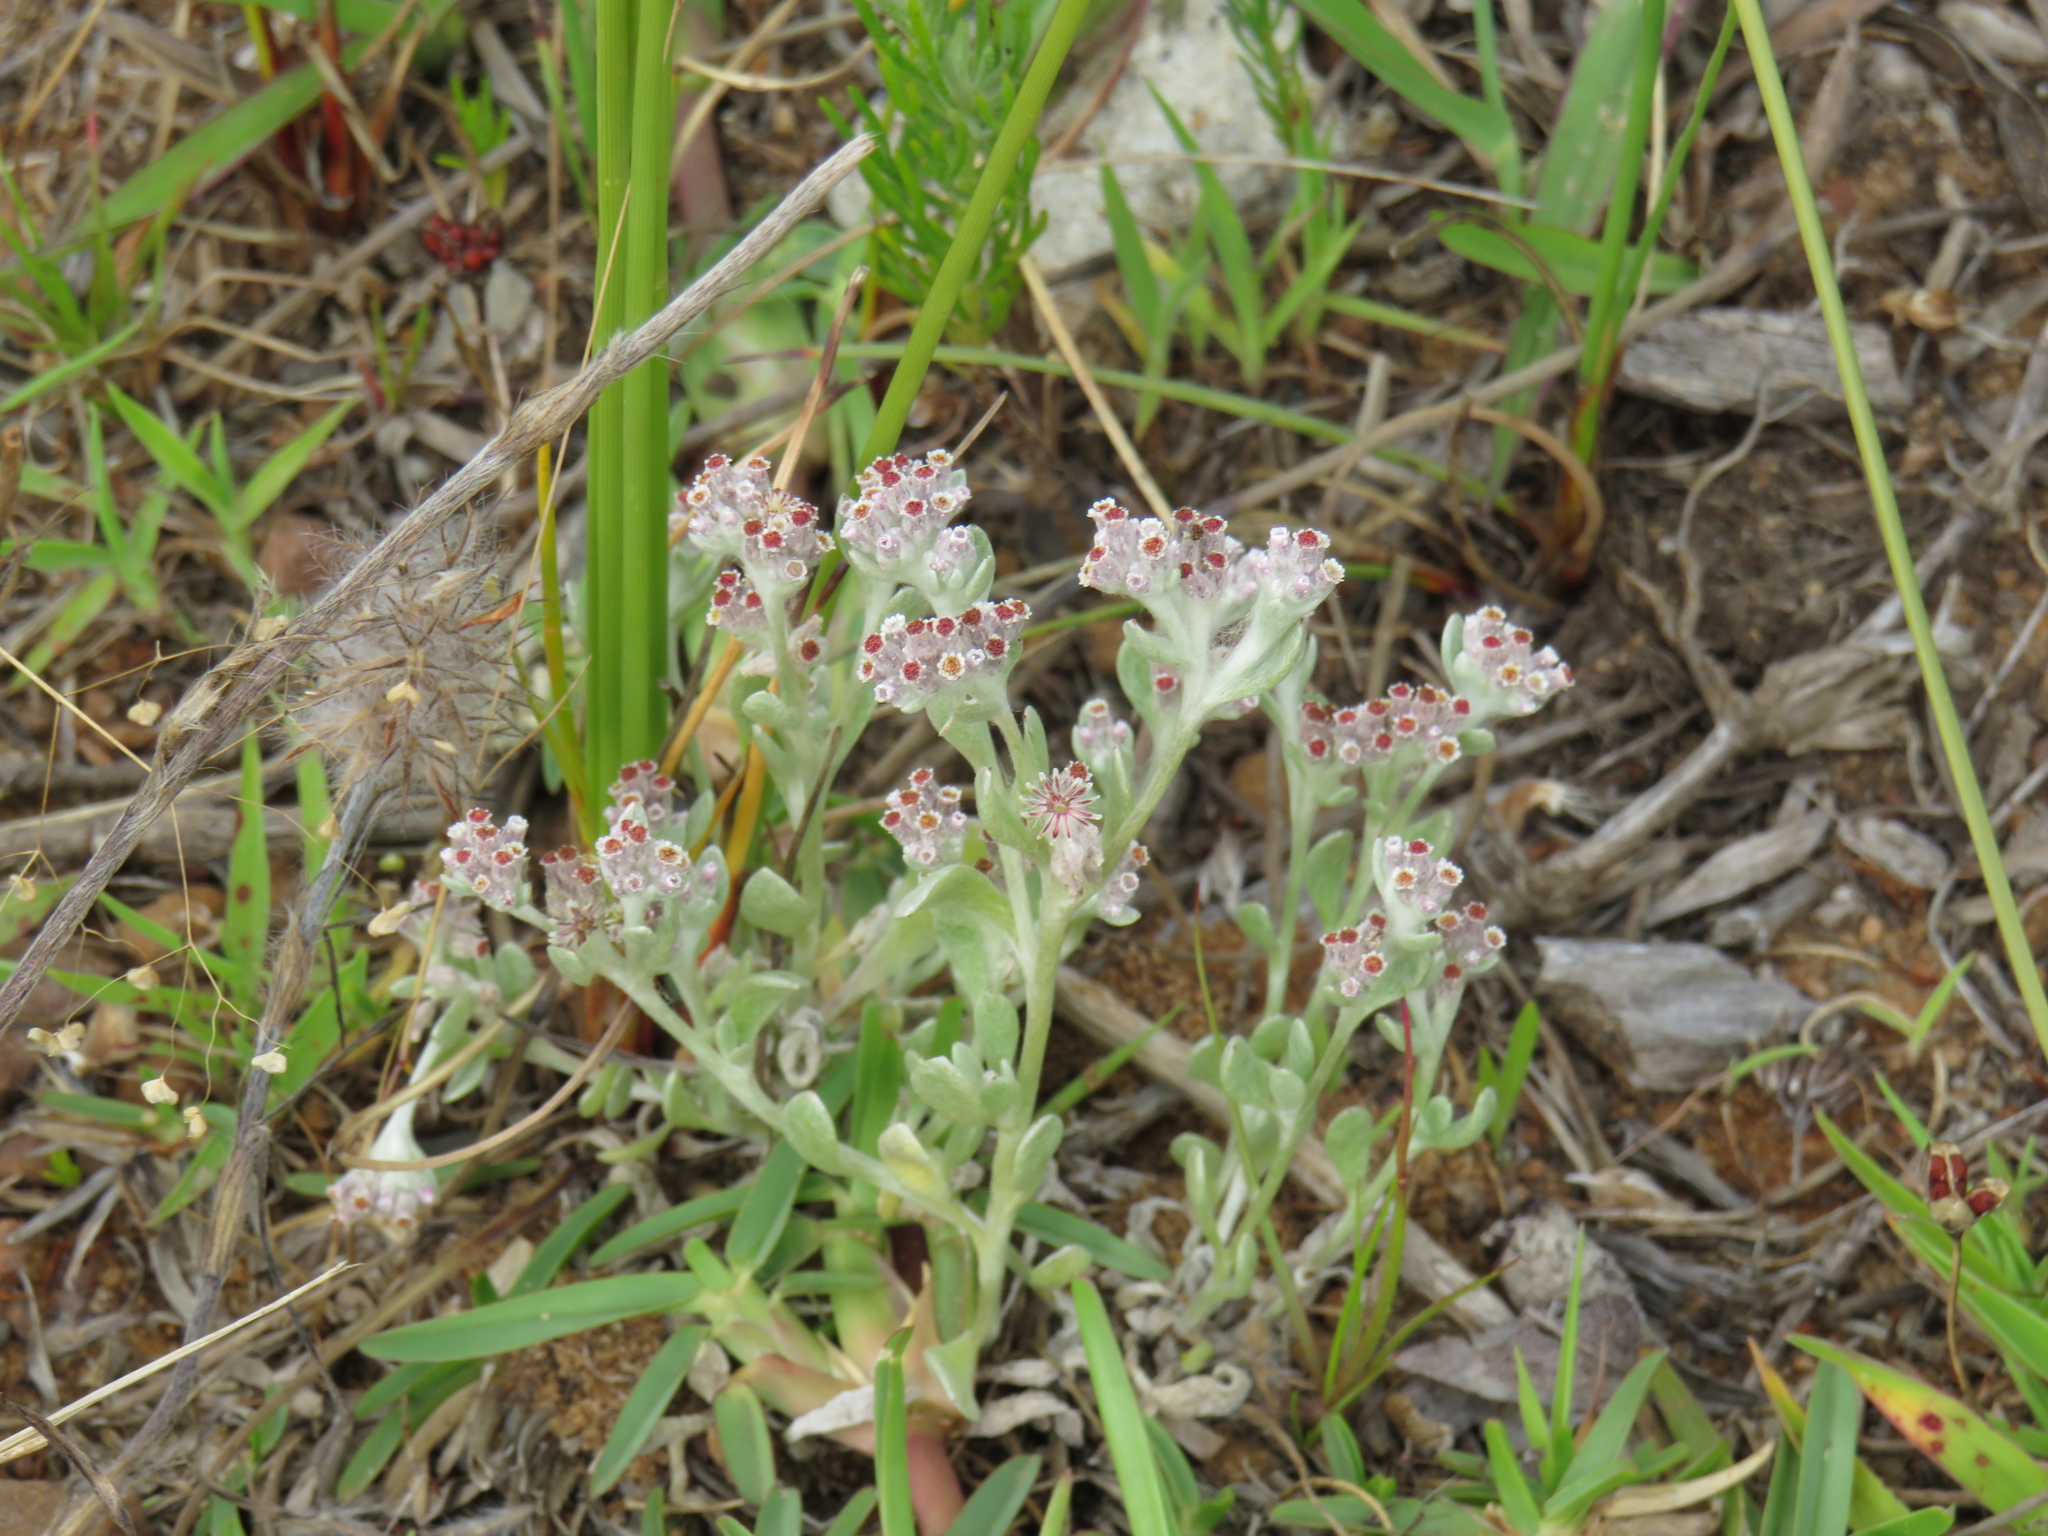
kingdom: Plantae
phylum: Tracheophyta
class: Magnoliopsida
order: Asterales
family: Asteraceae
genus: Vellereophyton
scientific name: Vellereophyton dealbatum
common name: White-cudweed
